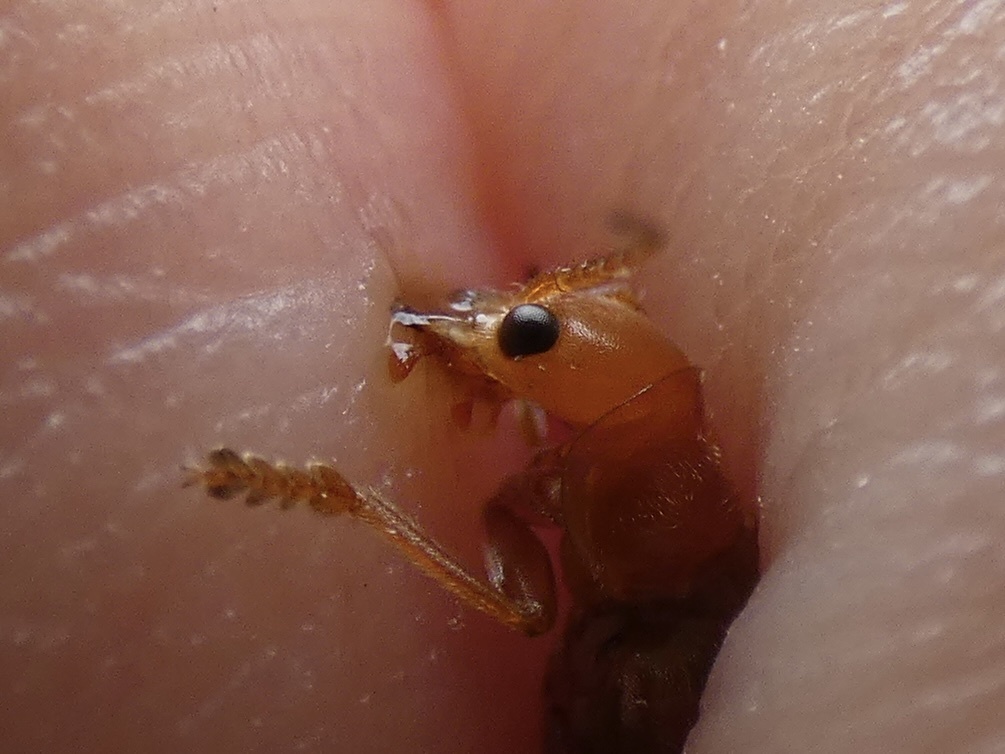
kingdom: Animalia
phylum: Arthropoda
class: Insecta
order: Coleoptera
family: Cantharidae
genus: Cantharis
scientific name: Cantharis cryptica
